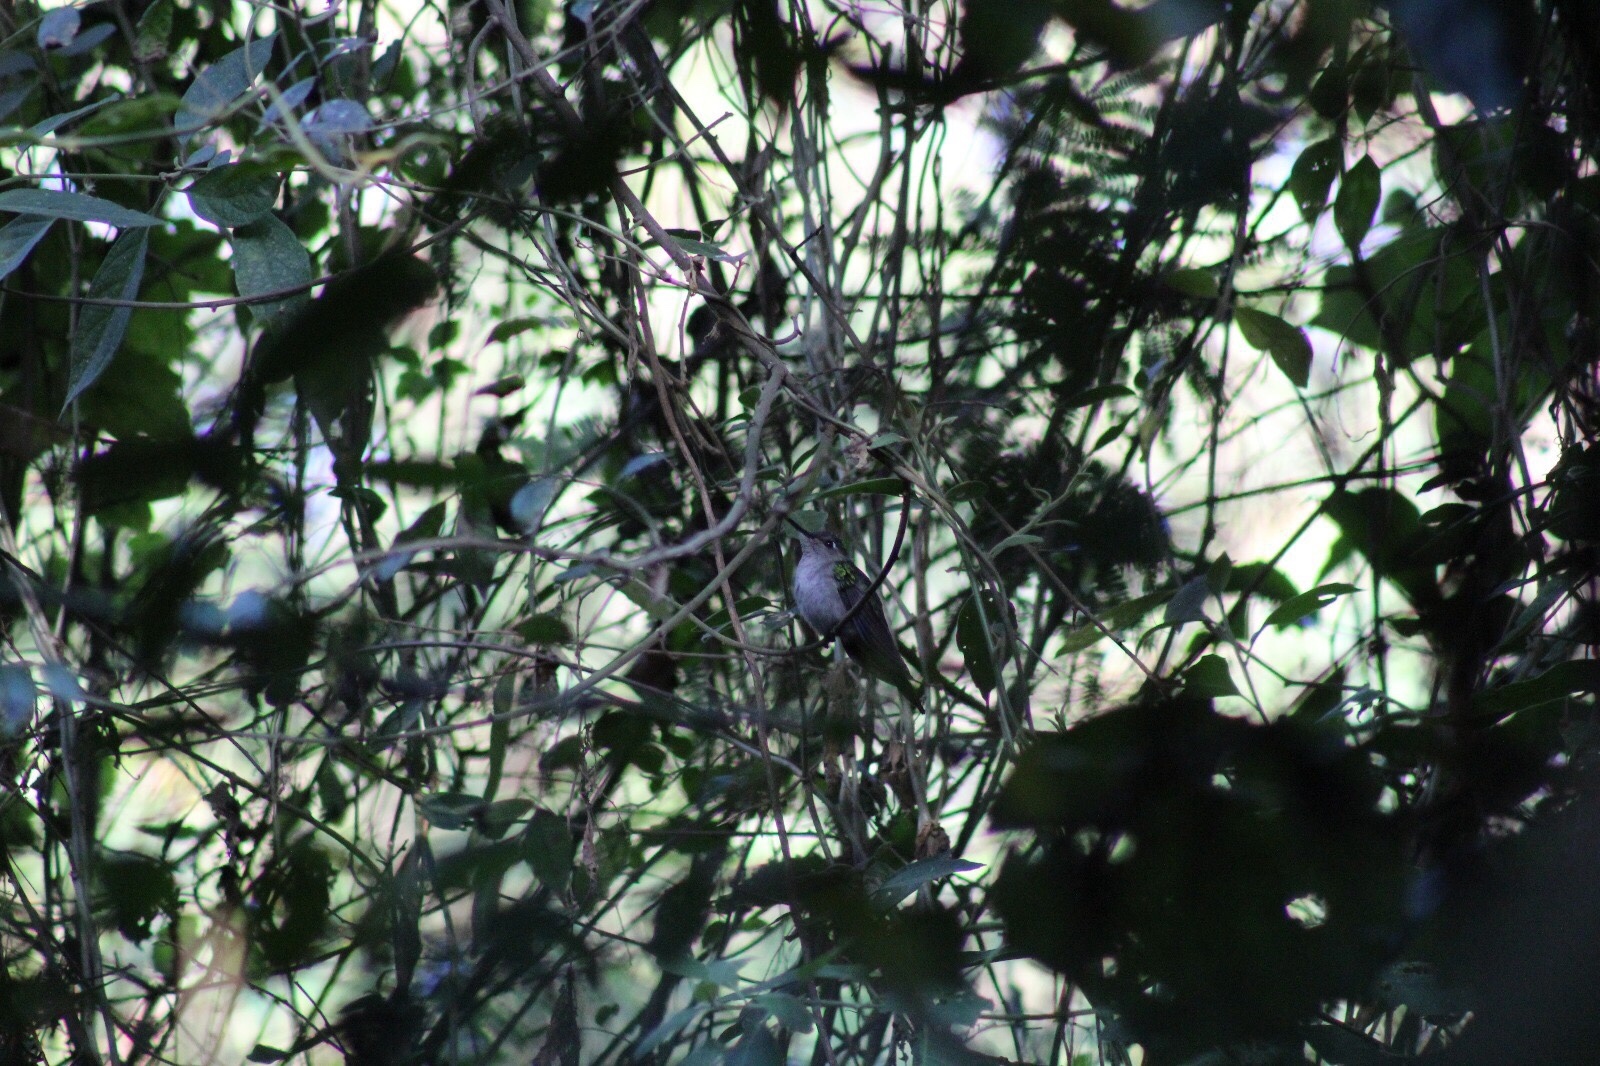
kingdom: Animalia
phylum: Chordata
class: Aves
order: Apodiformes
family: Trochilidae
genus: Pampa
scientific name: Pampa curvipennis
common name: Curve-winged sabrewing
